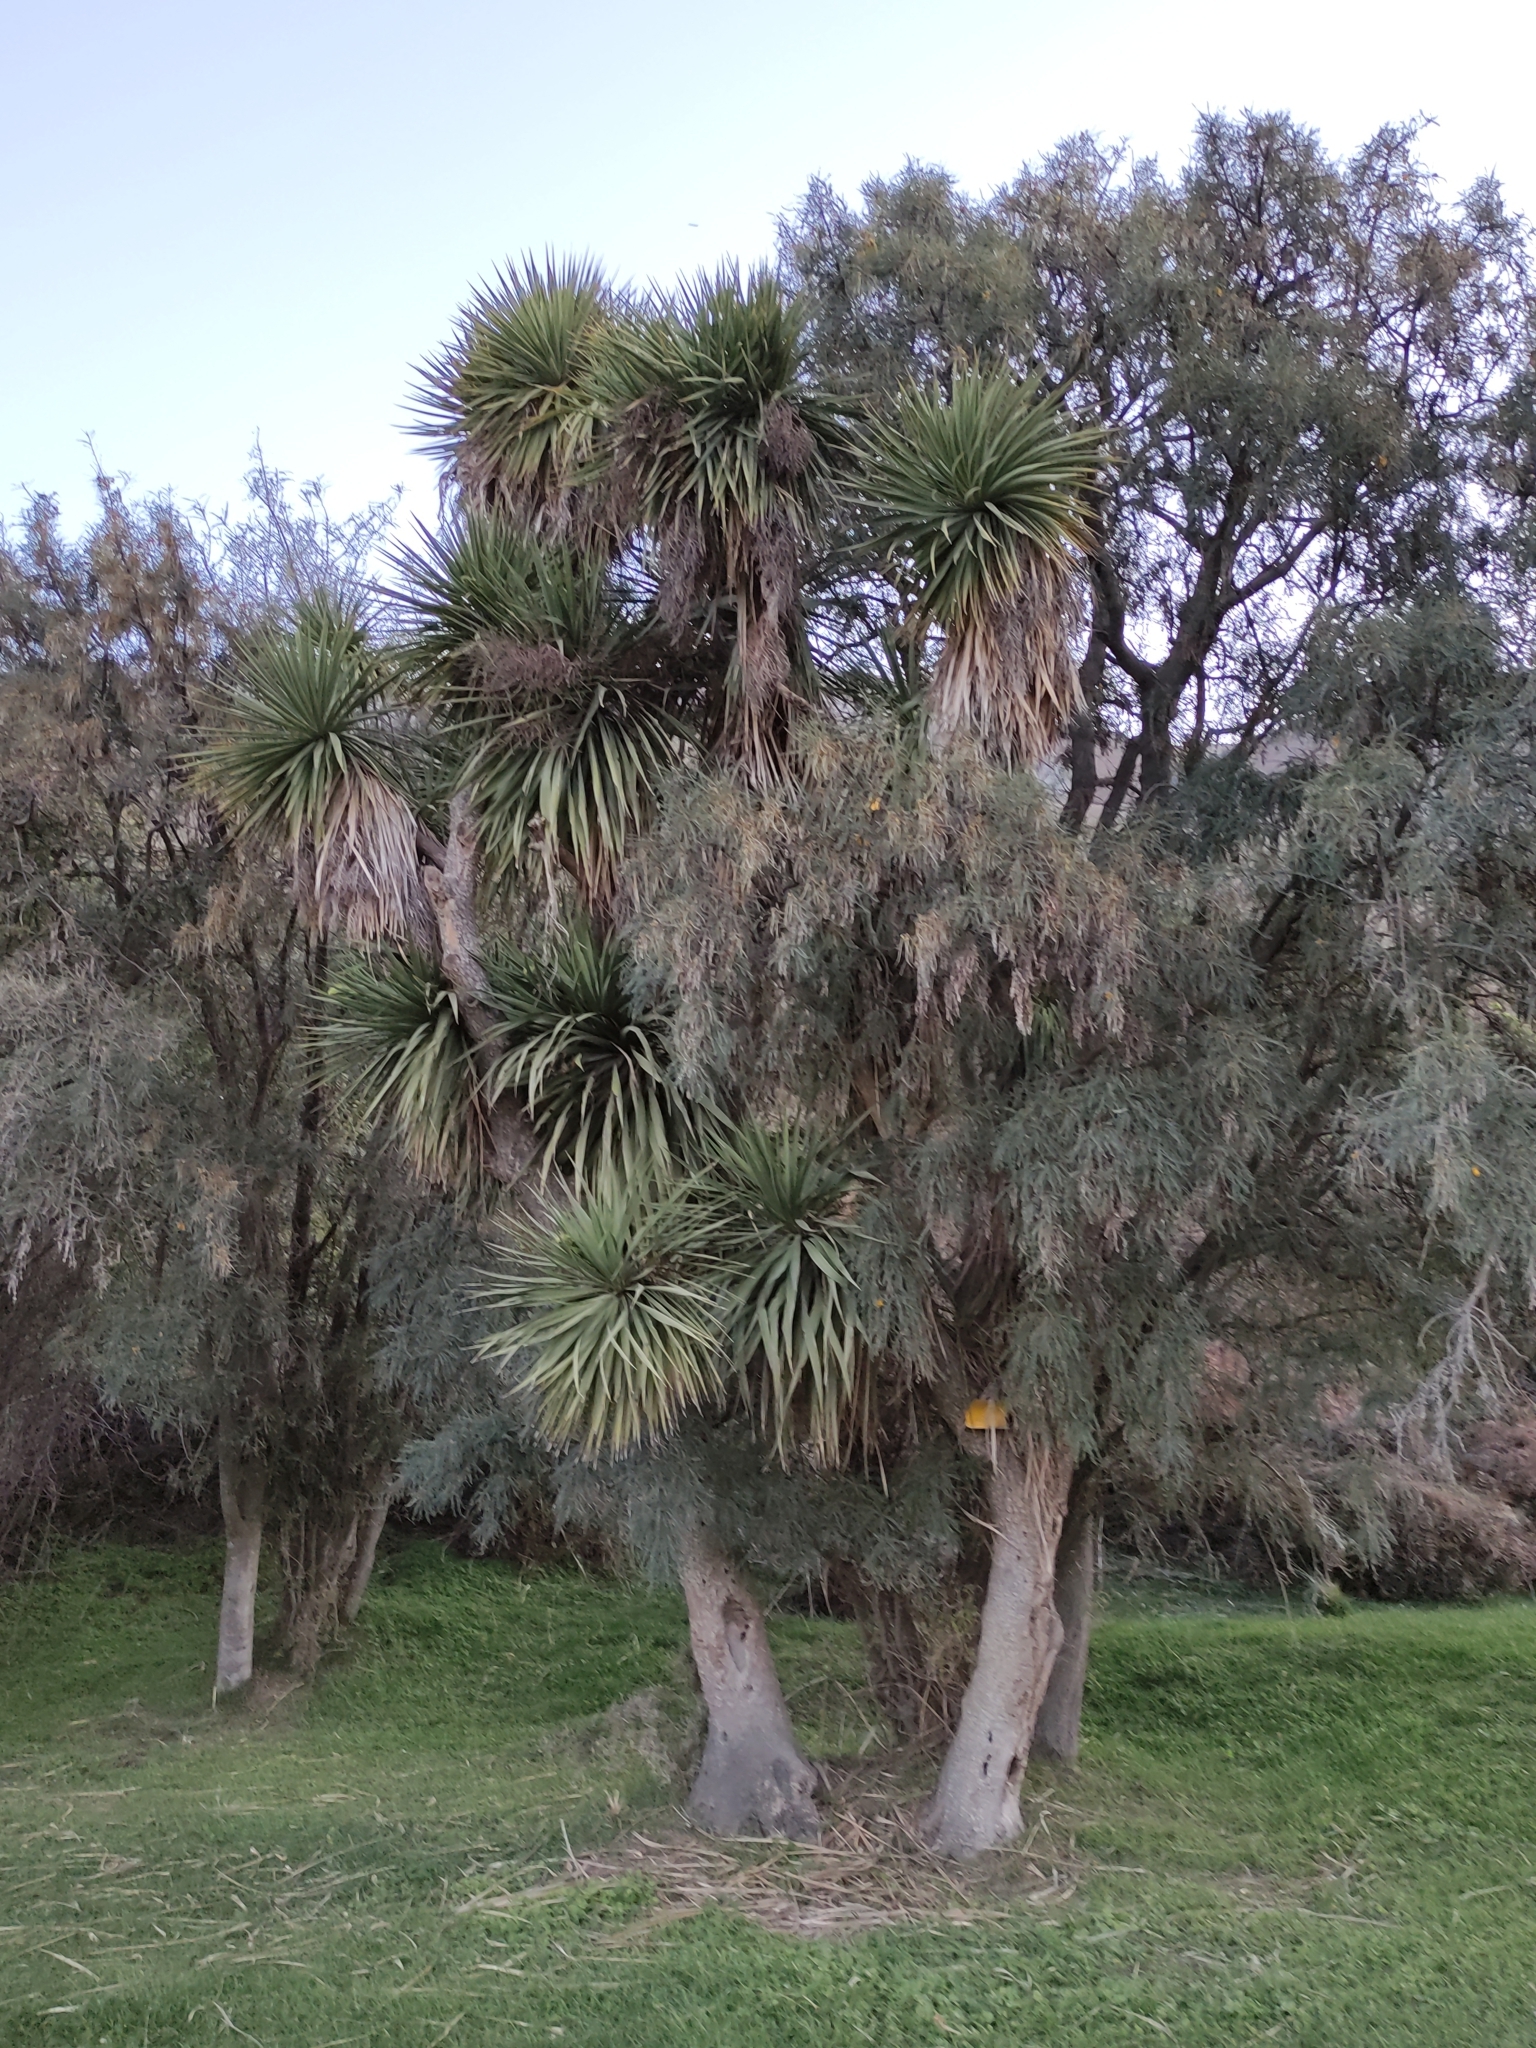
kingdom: Plantae
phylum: Tracheophyta
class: Liliopsida
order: Asparagales
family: Asparagaceae
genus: Cordyline
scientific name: Cordyline australis
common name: Cabbage-palm
